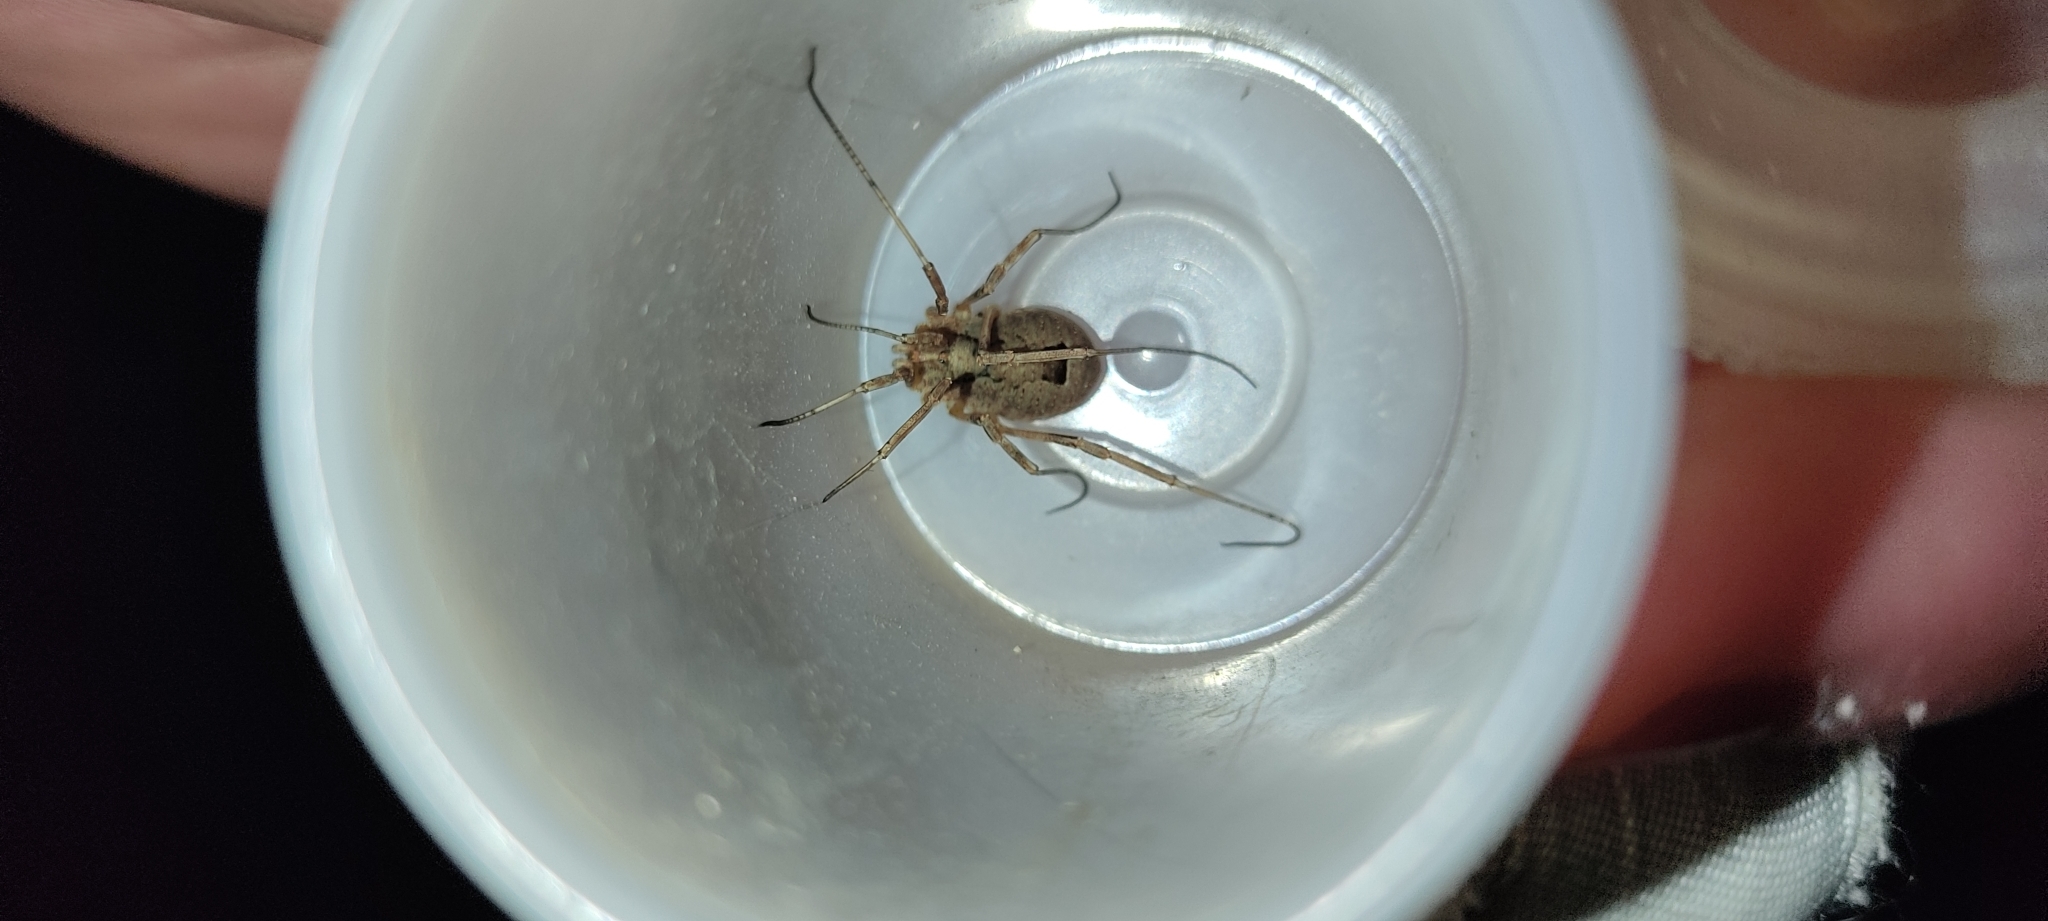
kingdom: Animalia
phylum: Arthropoda
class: Arachnida
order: Opiliones
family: Phalangiidae
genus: Odiellus
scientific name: Odiellus spinosus
